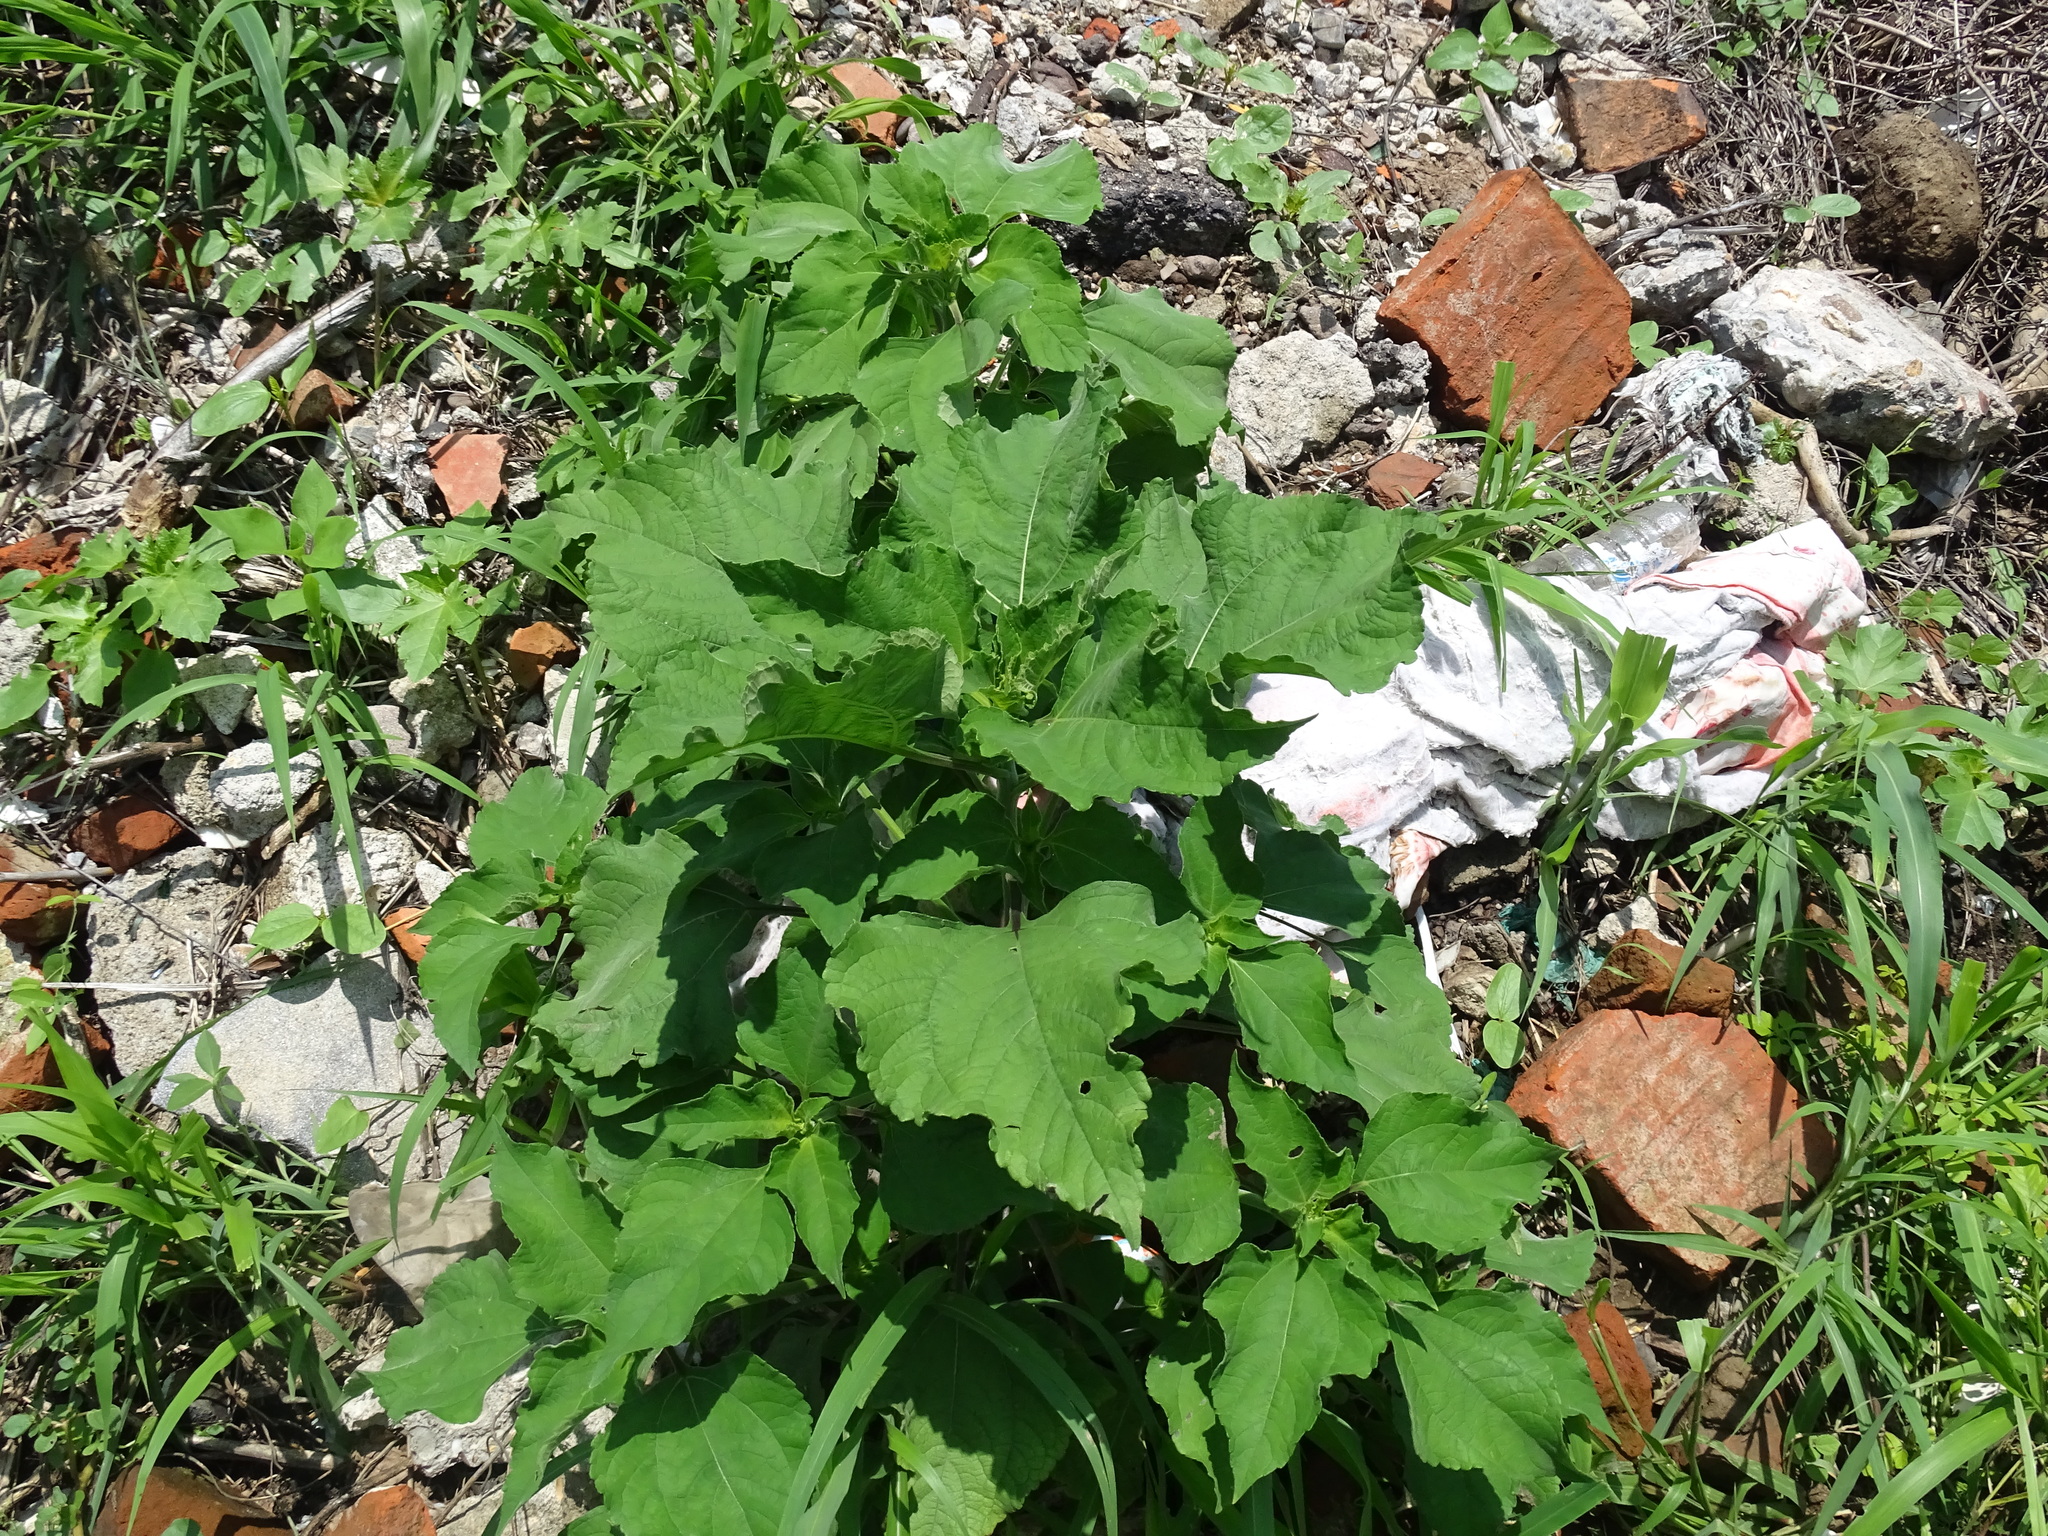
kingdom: Plantae
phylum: Tracheophyta
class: Magnoliopsida
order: Asterales
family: Asteraceae
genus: Tithonia
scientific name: Tithonia rotundifolia
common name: Sunflower
